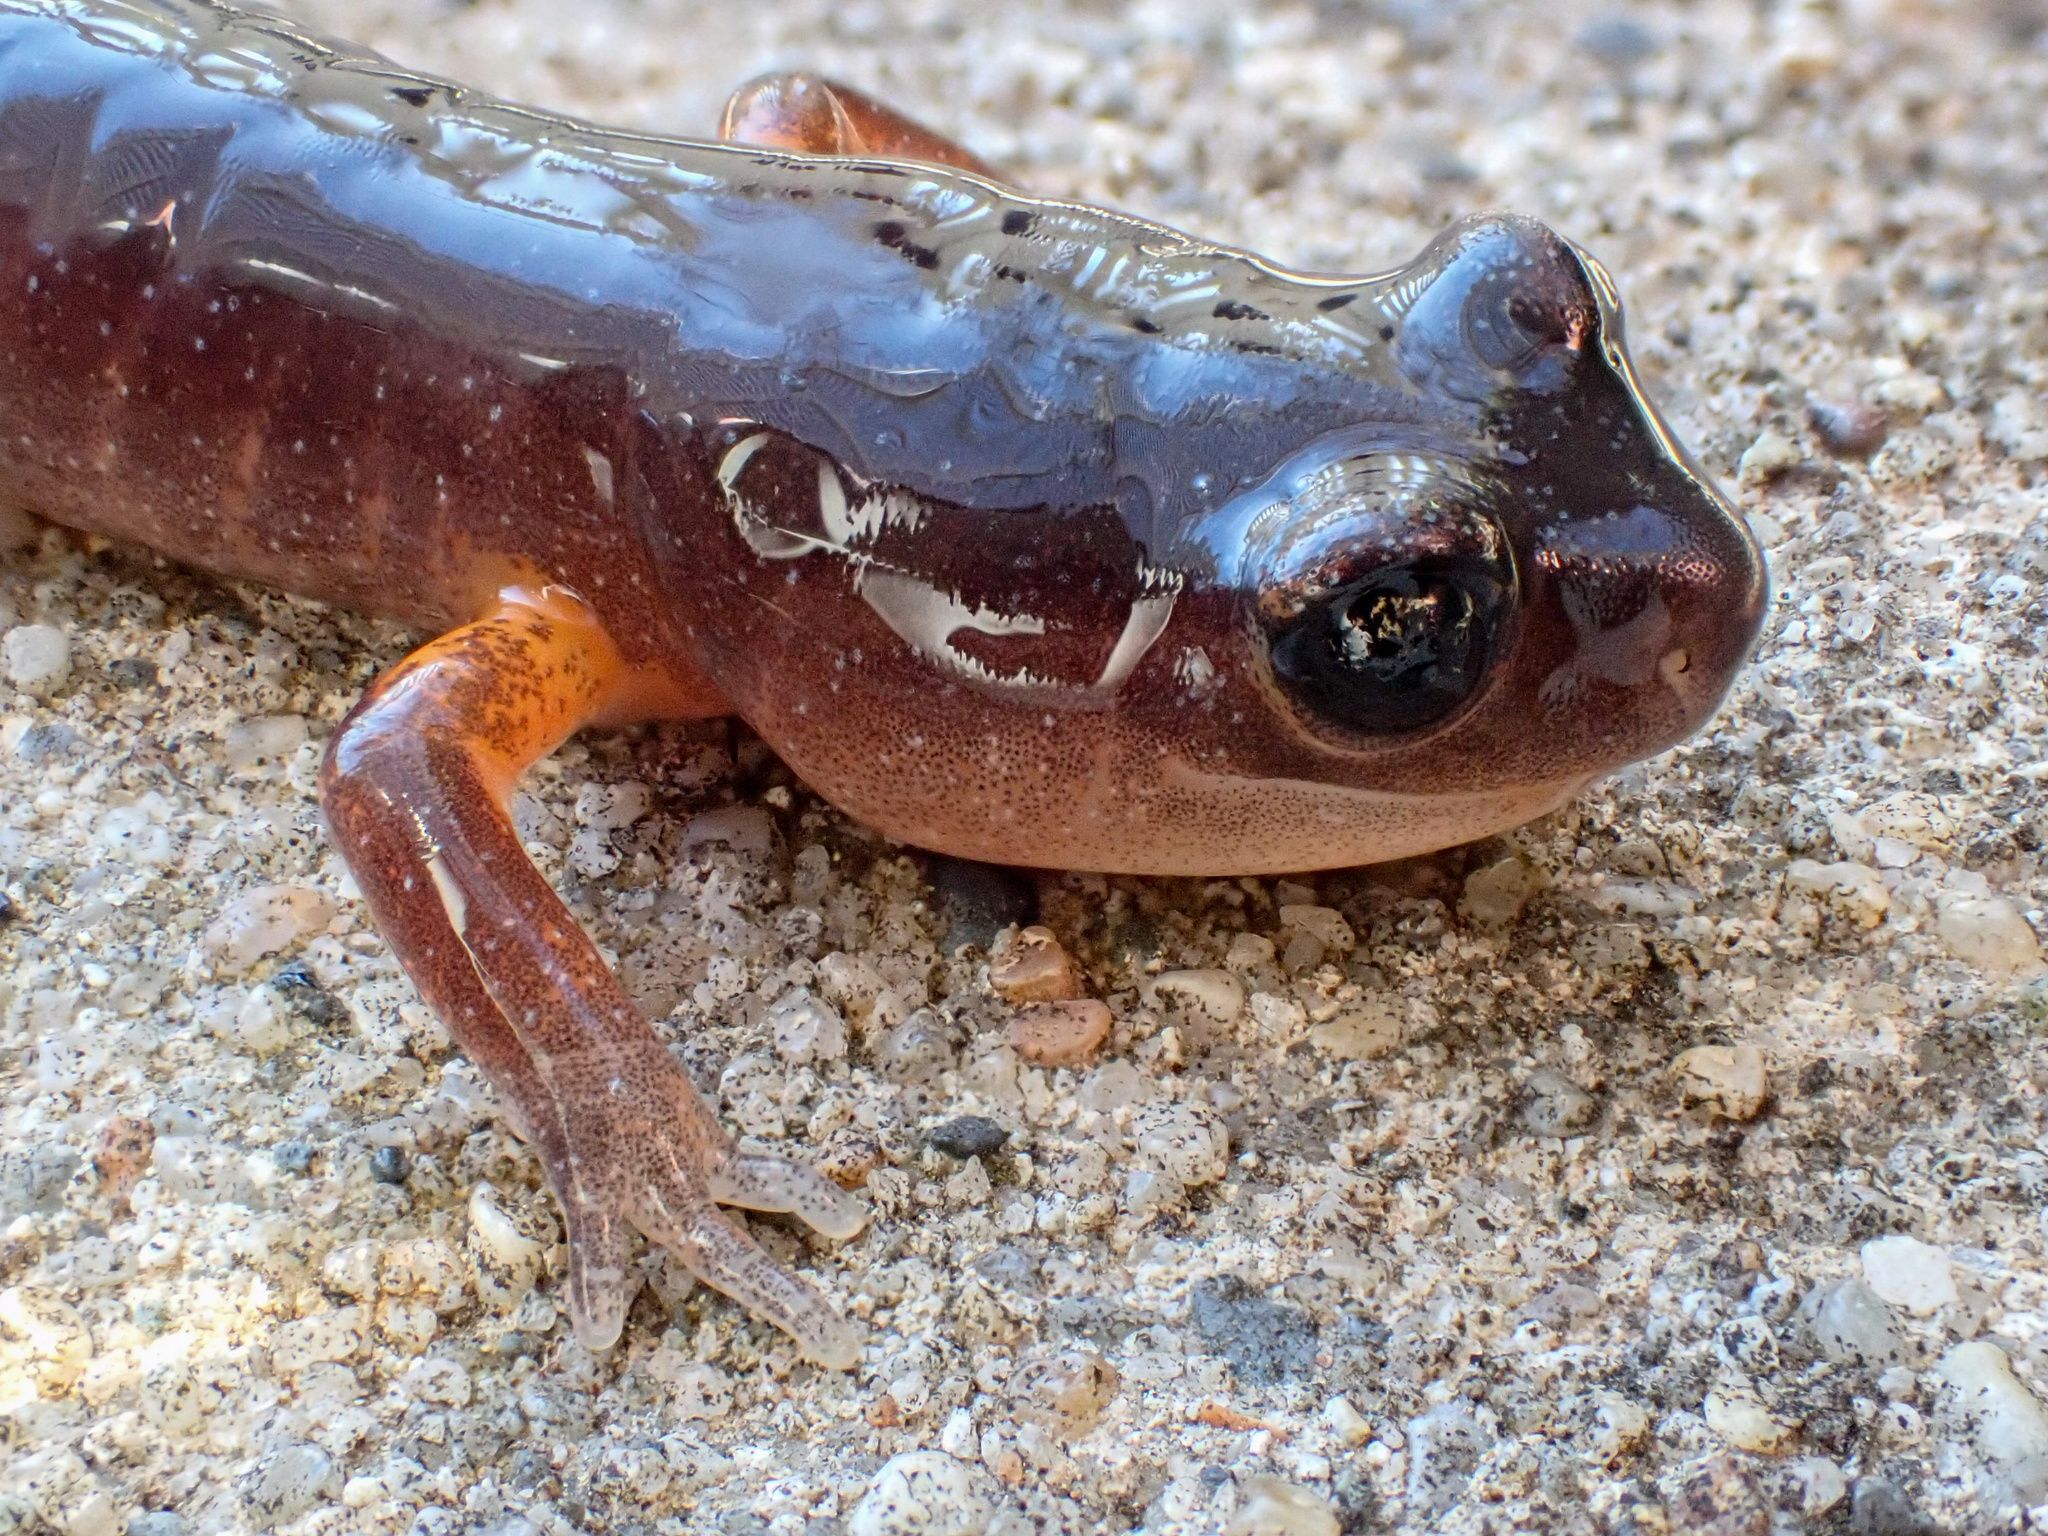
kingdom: Animalia
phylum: Chordata
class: Amphibia
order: Caudata
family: Plethodontidae
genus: Ensatina
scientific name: Ensatina eschscholtzii
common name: Ensatina
